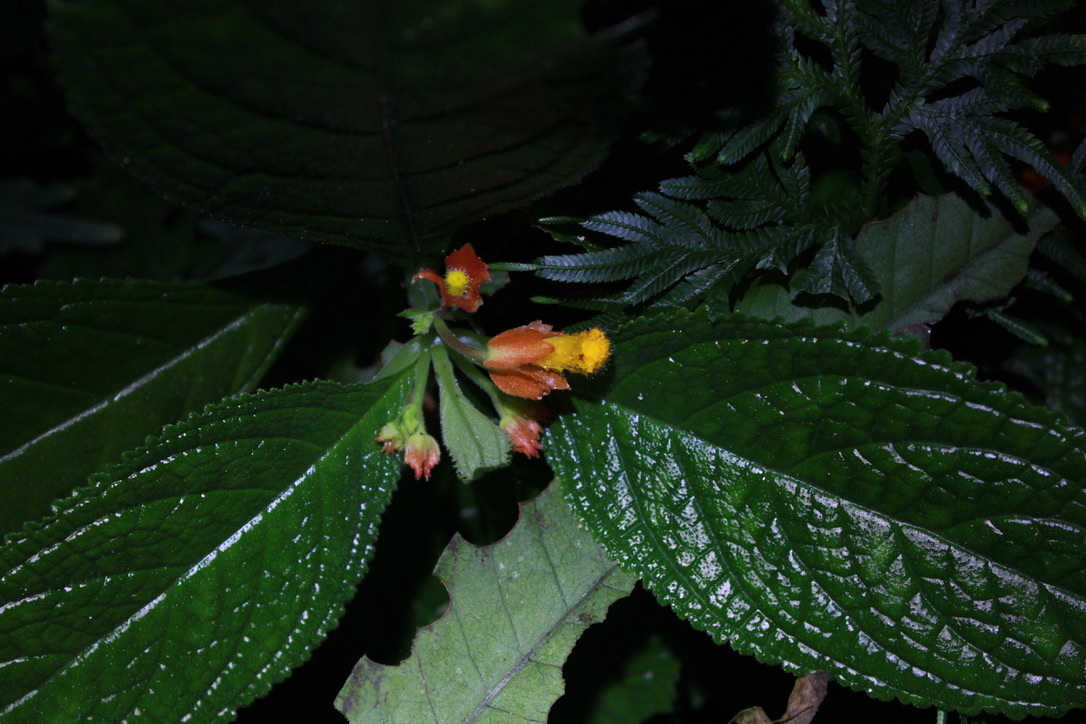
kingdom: Plantae
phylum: Tracheophyta
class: Magnoliopsida
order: Lamiales
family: Gesneriaceae
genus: Chrysothemis
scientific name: Chrysothemis pulchella
